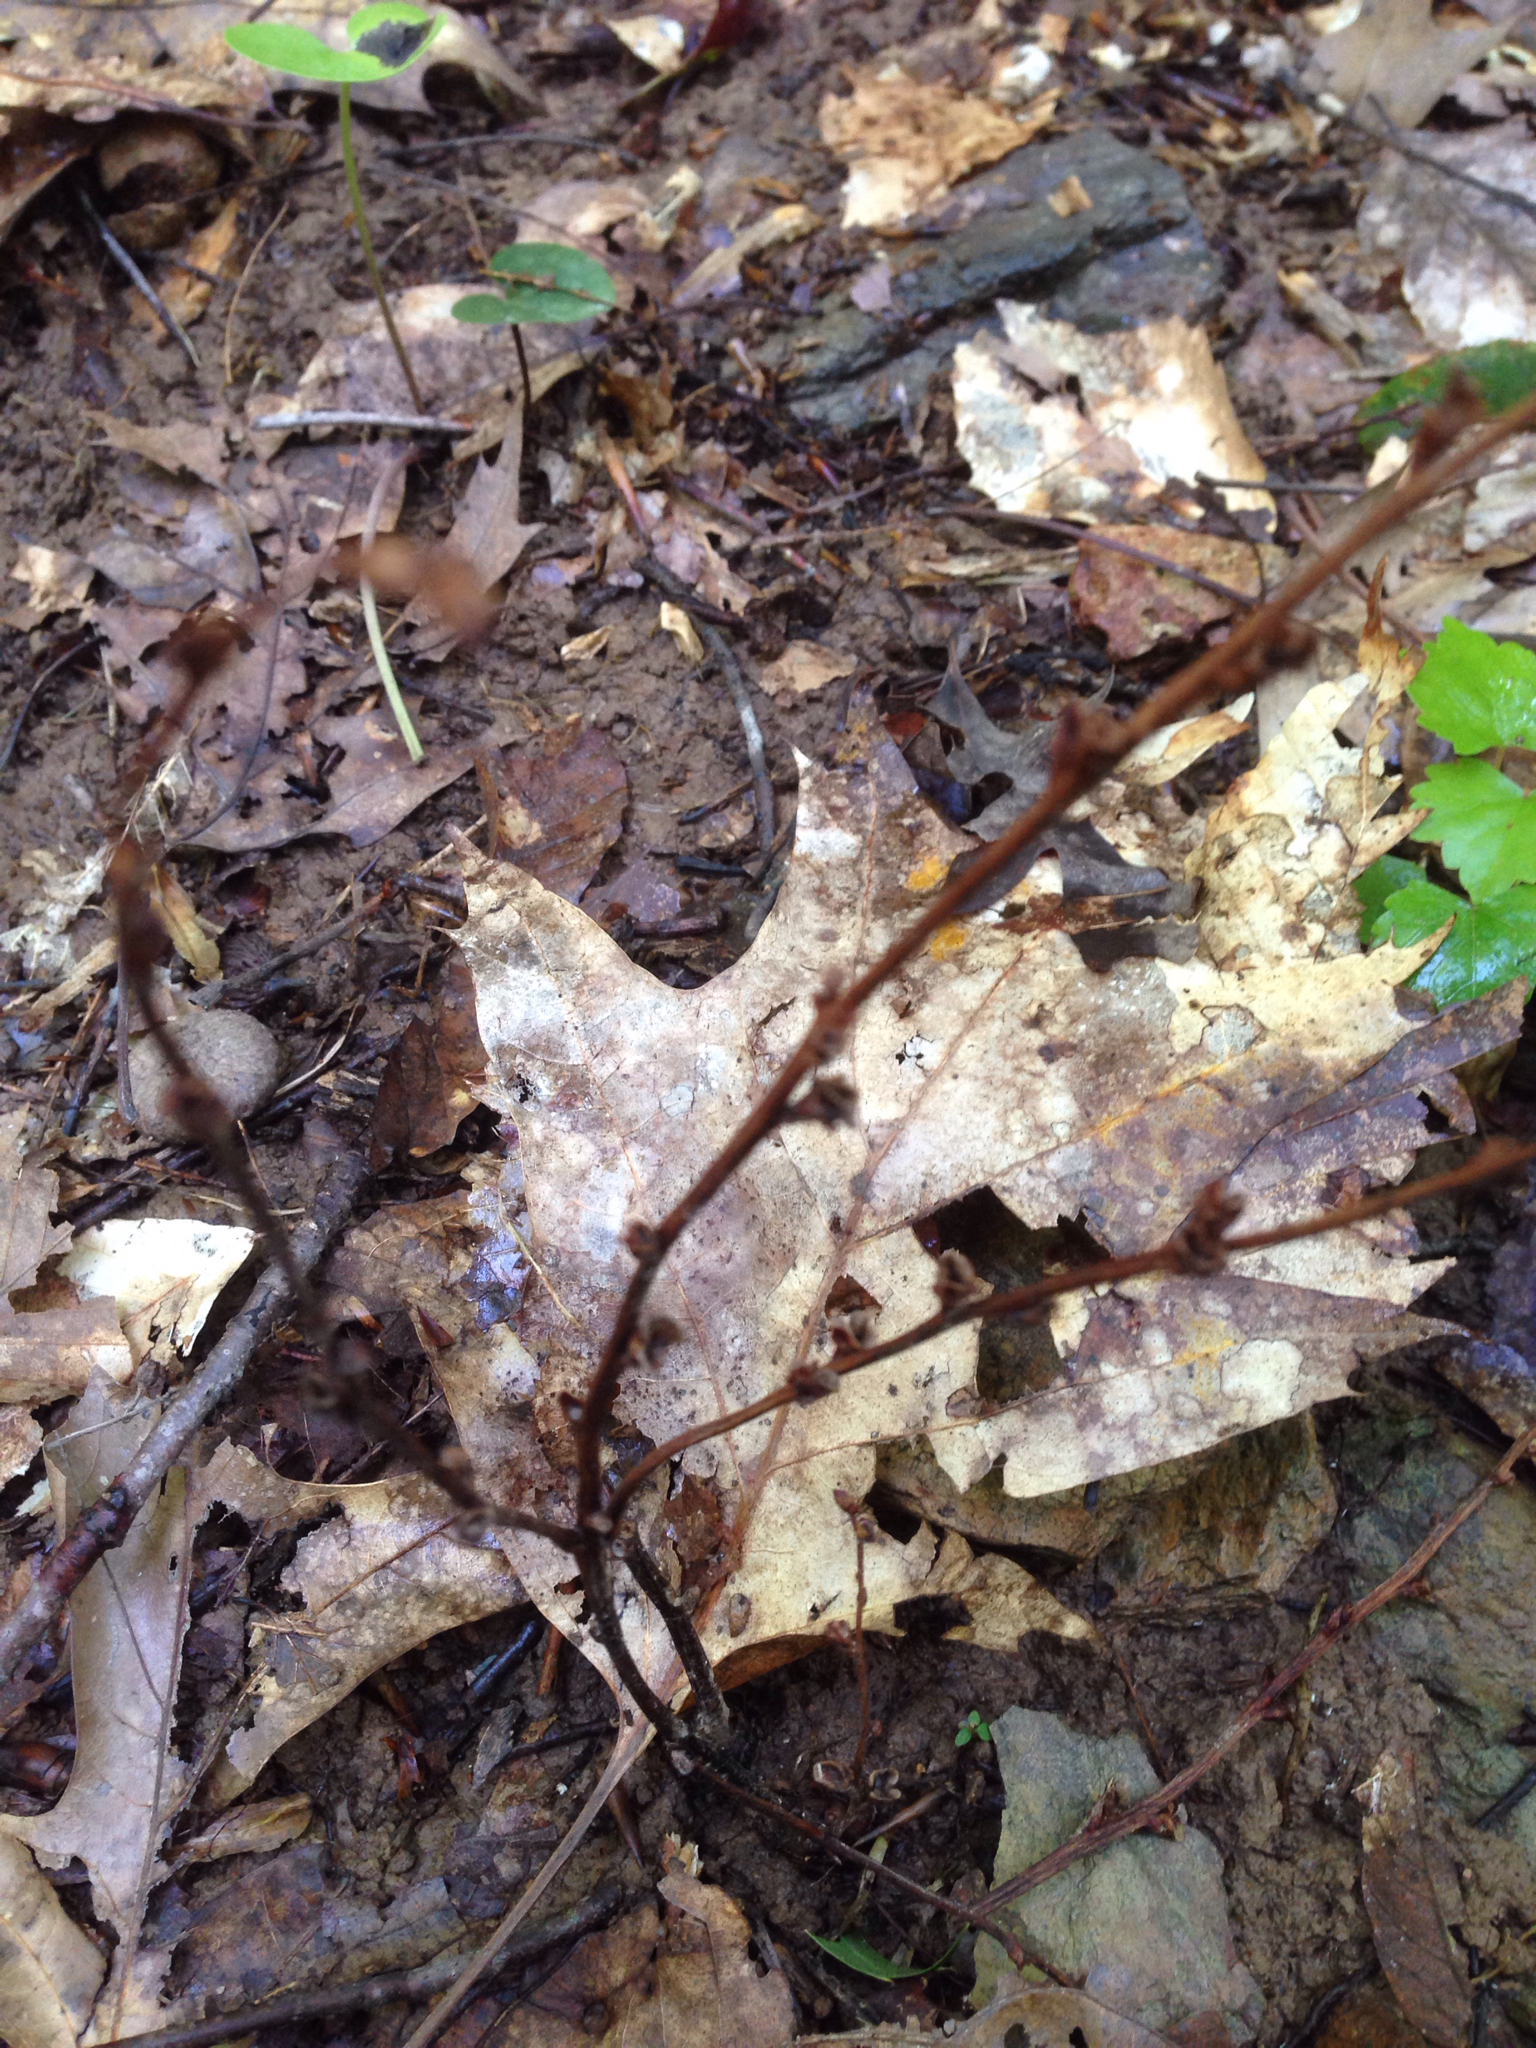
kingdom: Plantae
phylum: Tracheophyta
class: Magnoliopsida
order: Lamiales
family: Orobanchaceae
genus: Epifagus
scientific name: Epifagus virginiana
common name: Beechdrops
